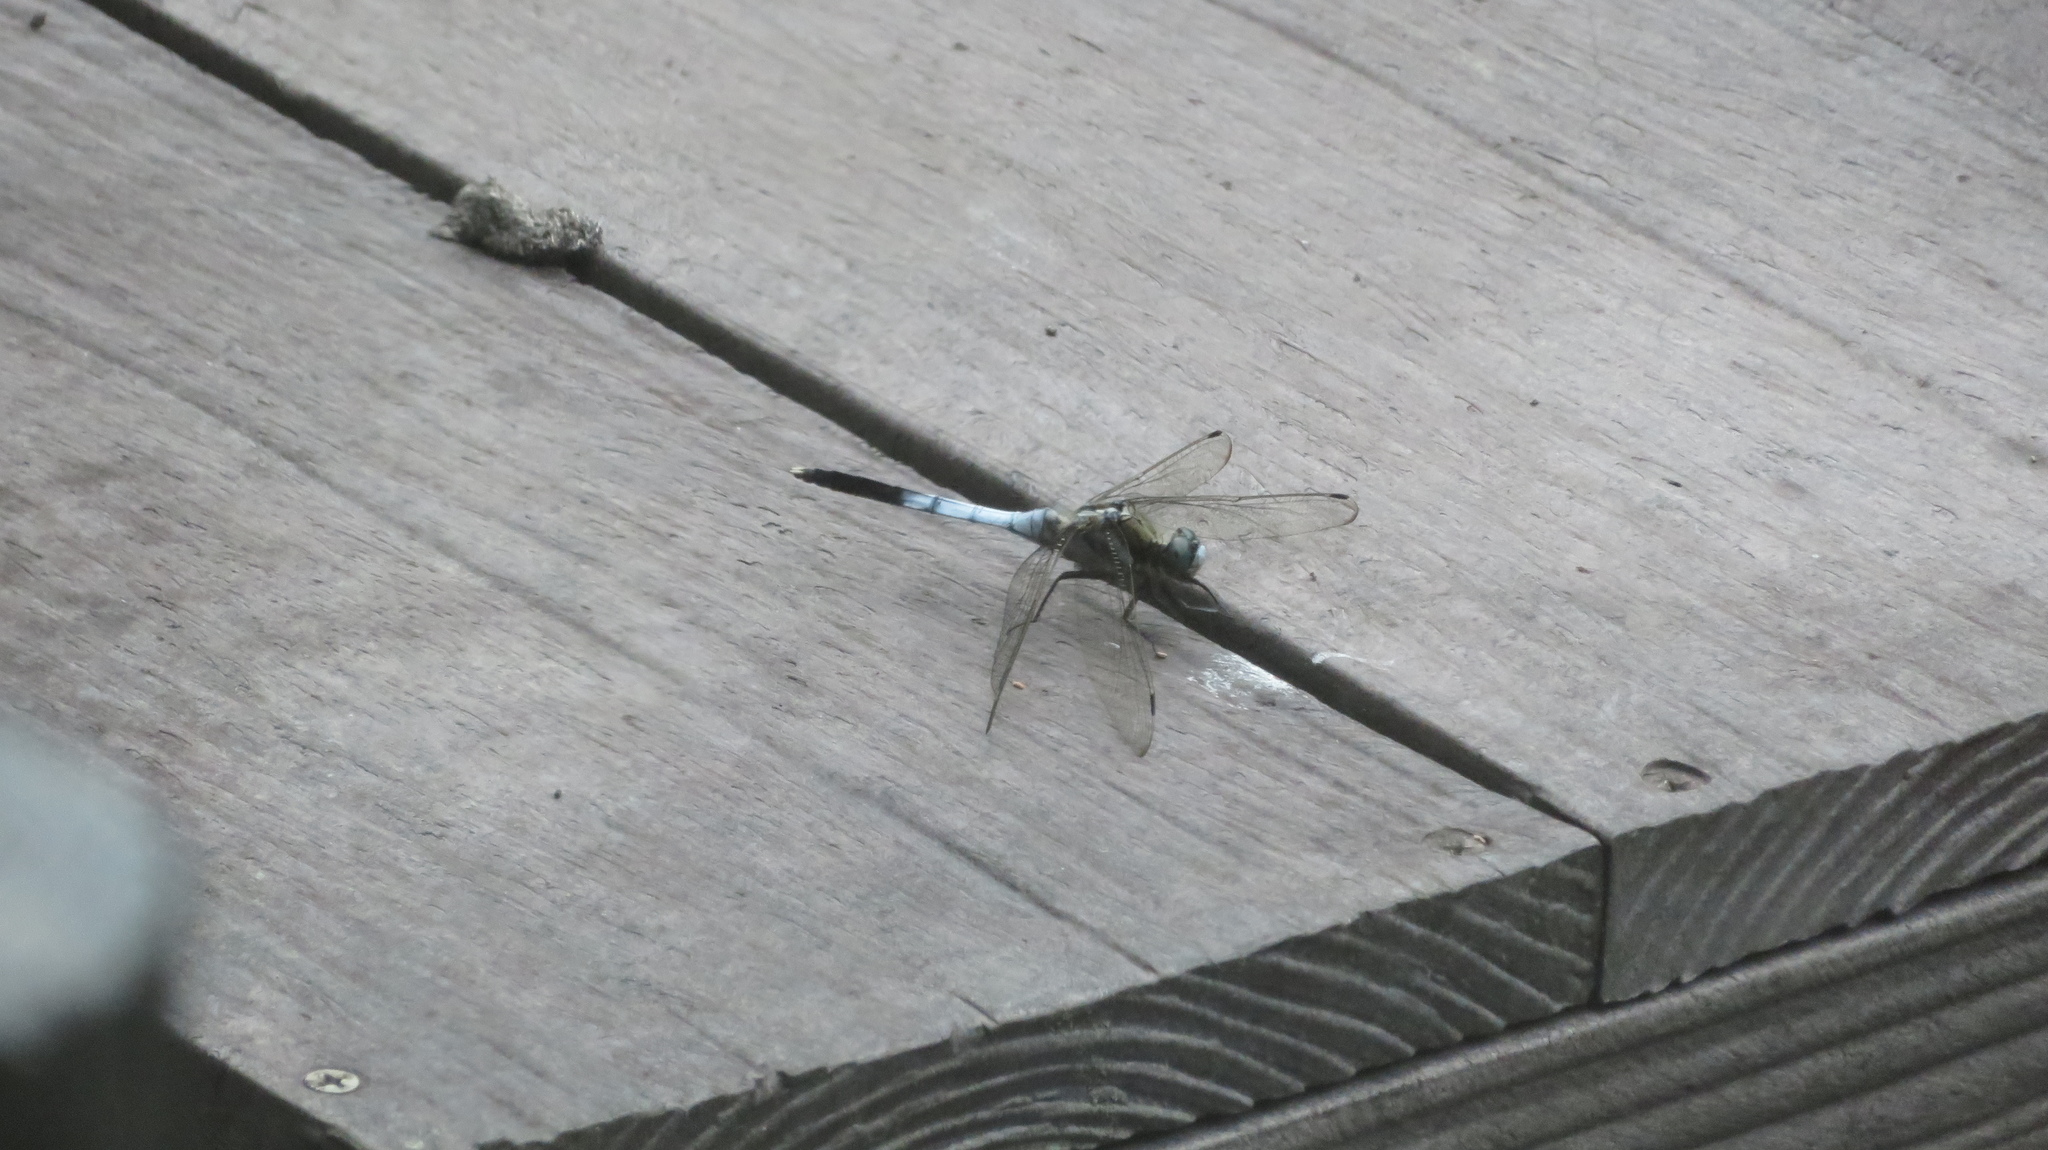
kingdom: Animalia
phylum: Arthropoda
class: Insecta
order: Odonata
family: Libellulidae
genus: Orthetrum
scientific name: Orthetrum albistylum
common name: White-tailed skimmer
